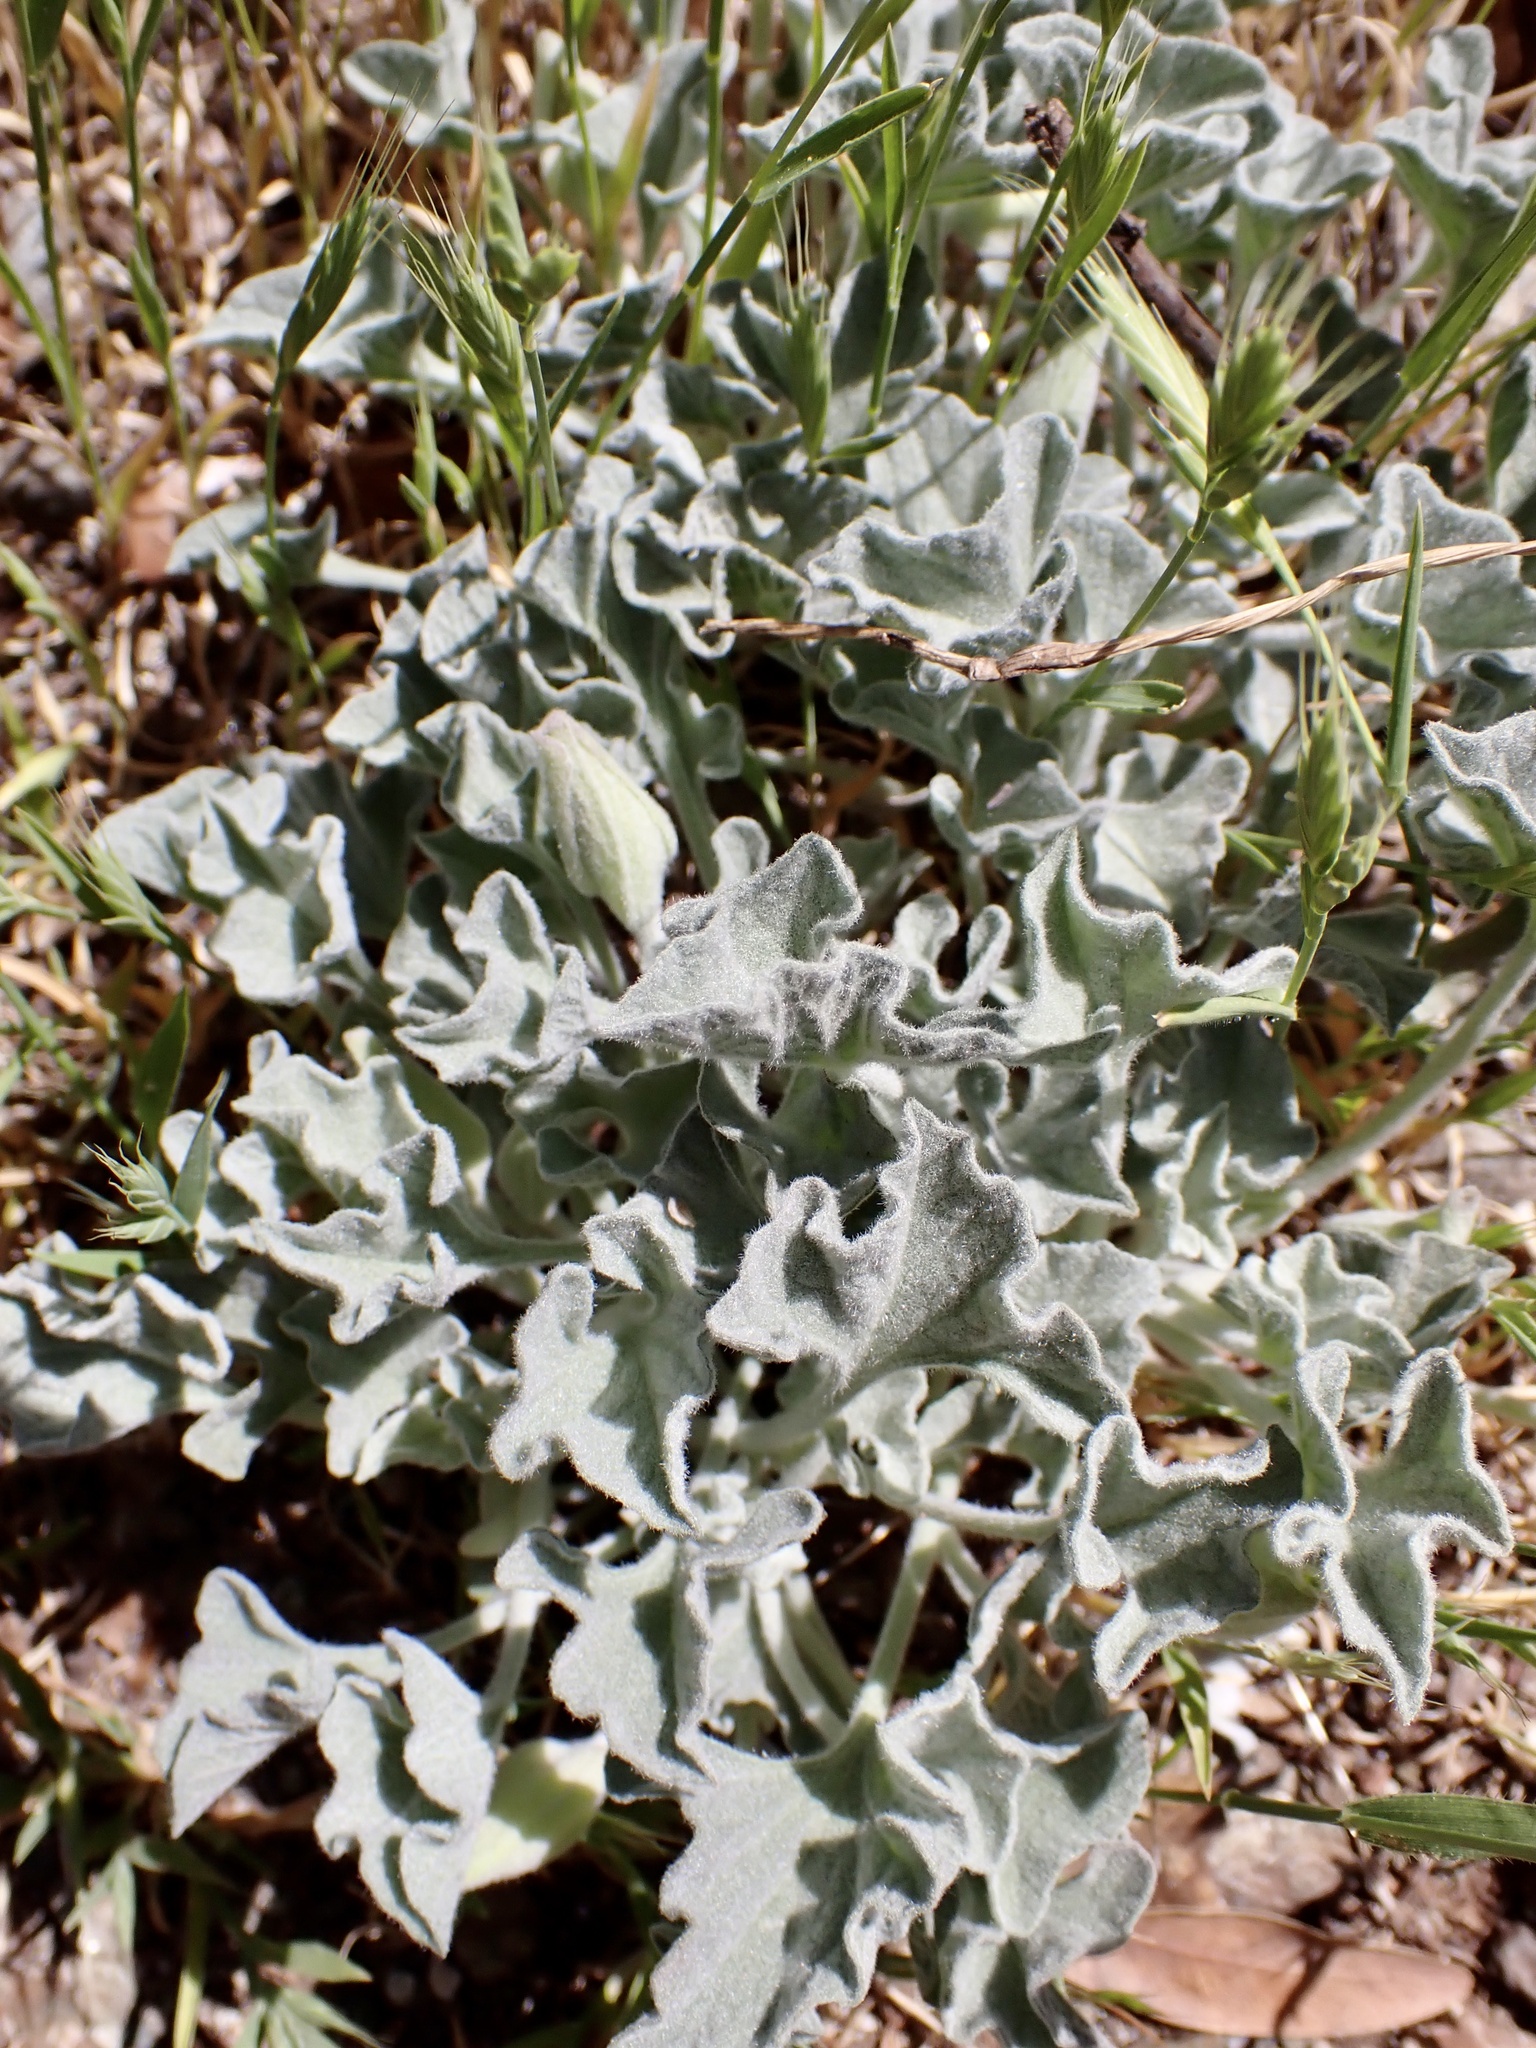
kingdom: Plantae
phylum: Tracheophyta
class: Magnoliopsida
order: Solanales
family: Convolvulaceae
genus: Calystegia
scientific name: Calystegia collina
